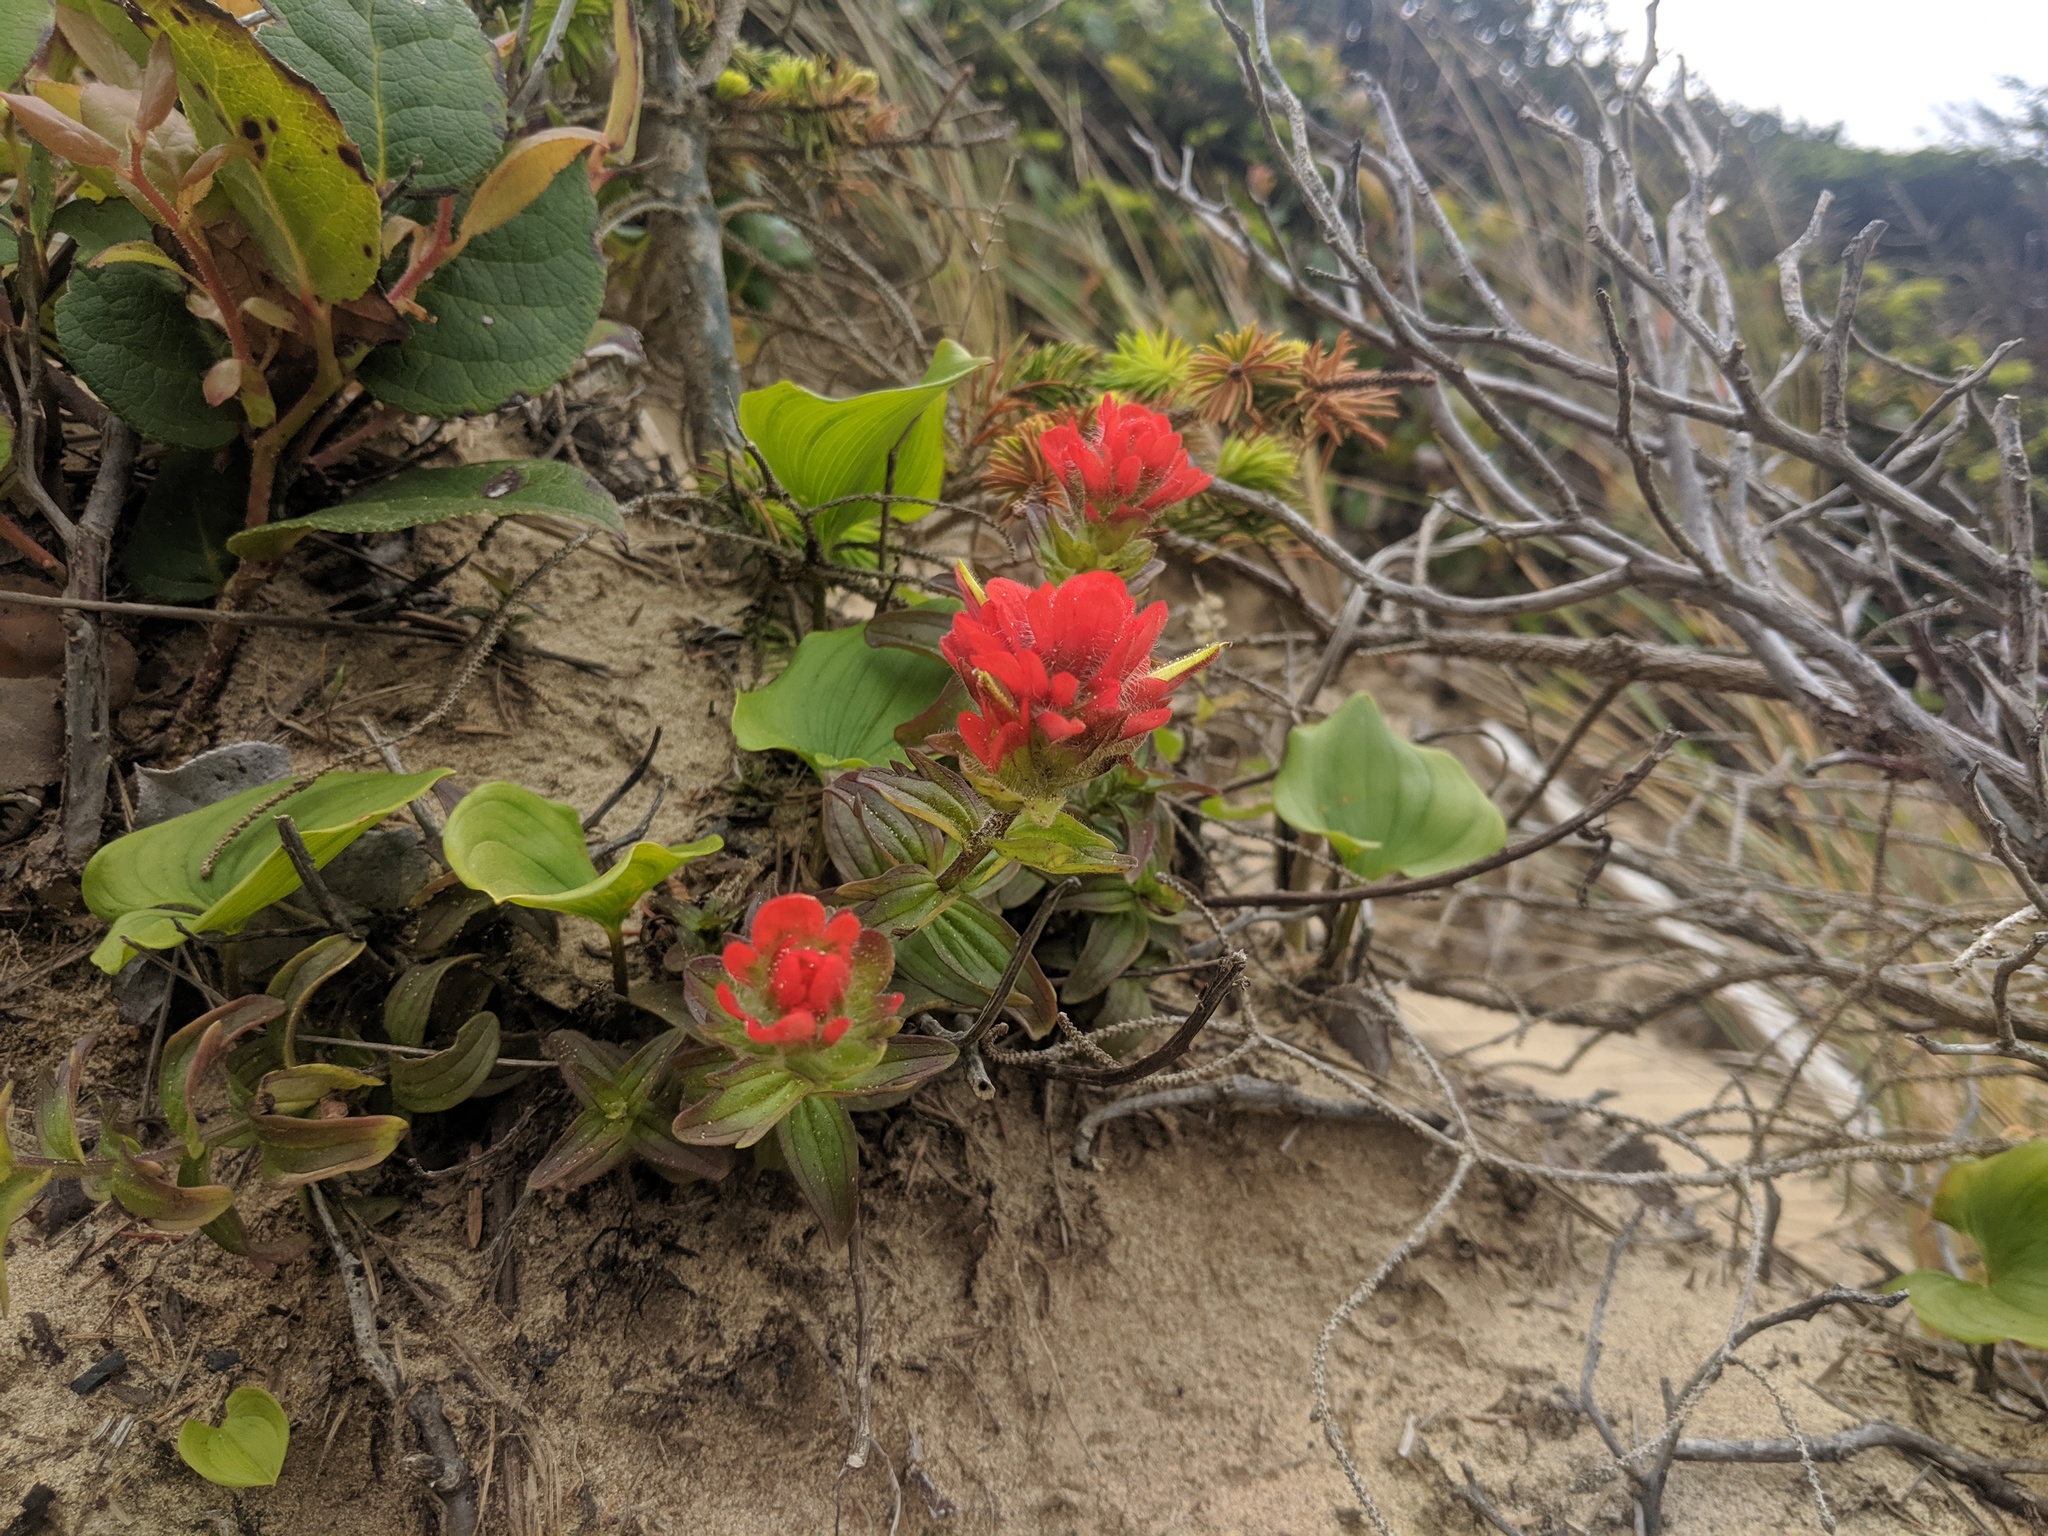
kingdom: Plantae
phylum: Tracheophyta
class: Magnoliopsida
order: Lamiales
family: Orobanchaceae
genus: Castilleja
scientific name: Castilleja litoralis
